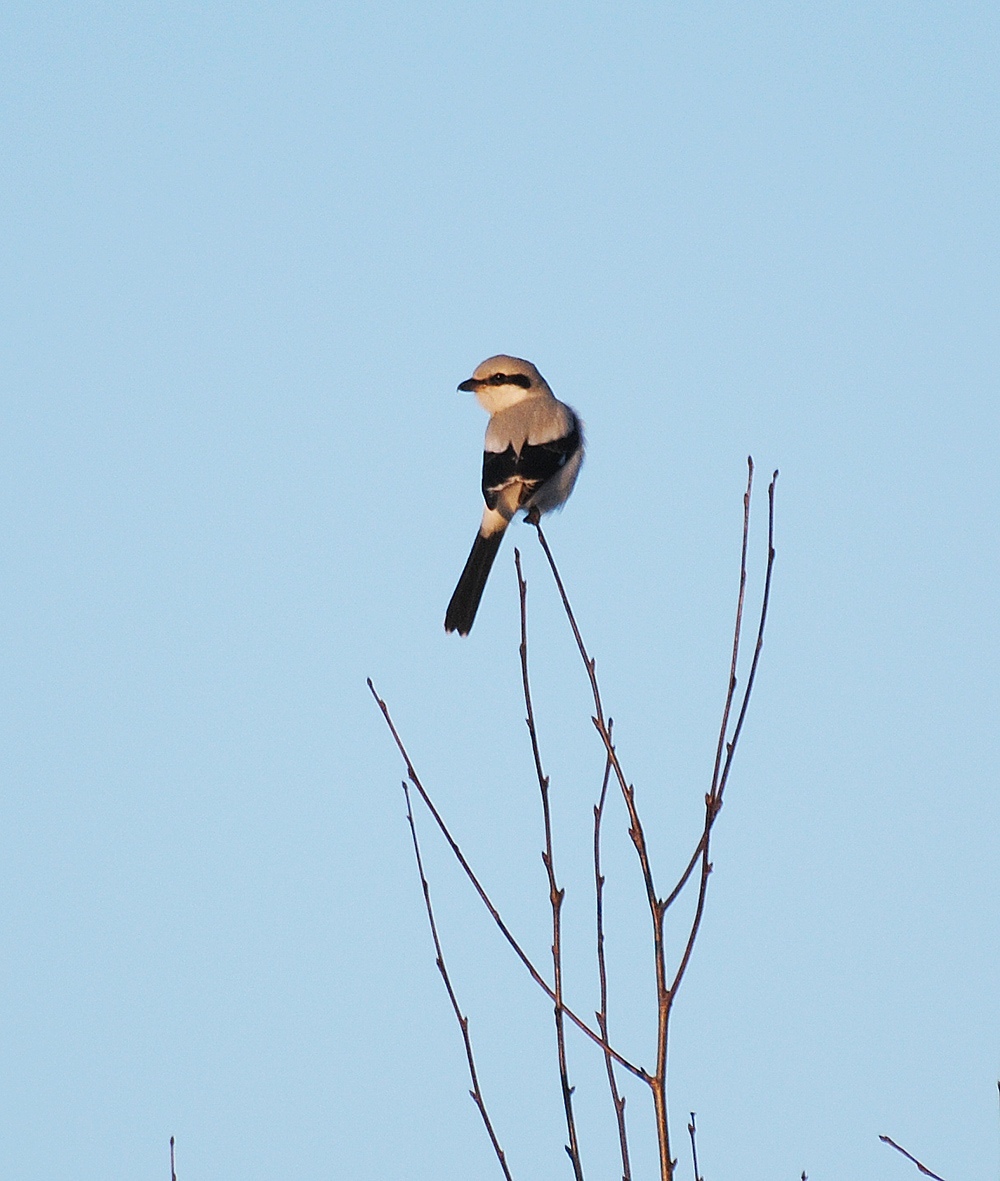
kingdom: Animalia
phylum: Chordata
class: Aves
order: Passeriformes
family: Laniidae
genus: Lanius
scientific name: Lanius excubitor
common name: Great grey shrike
